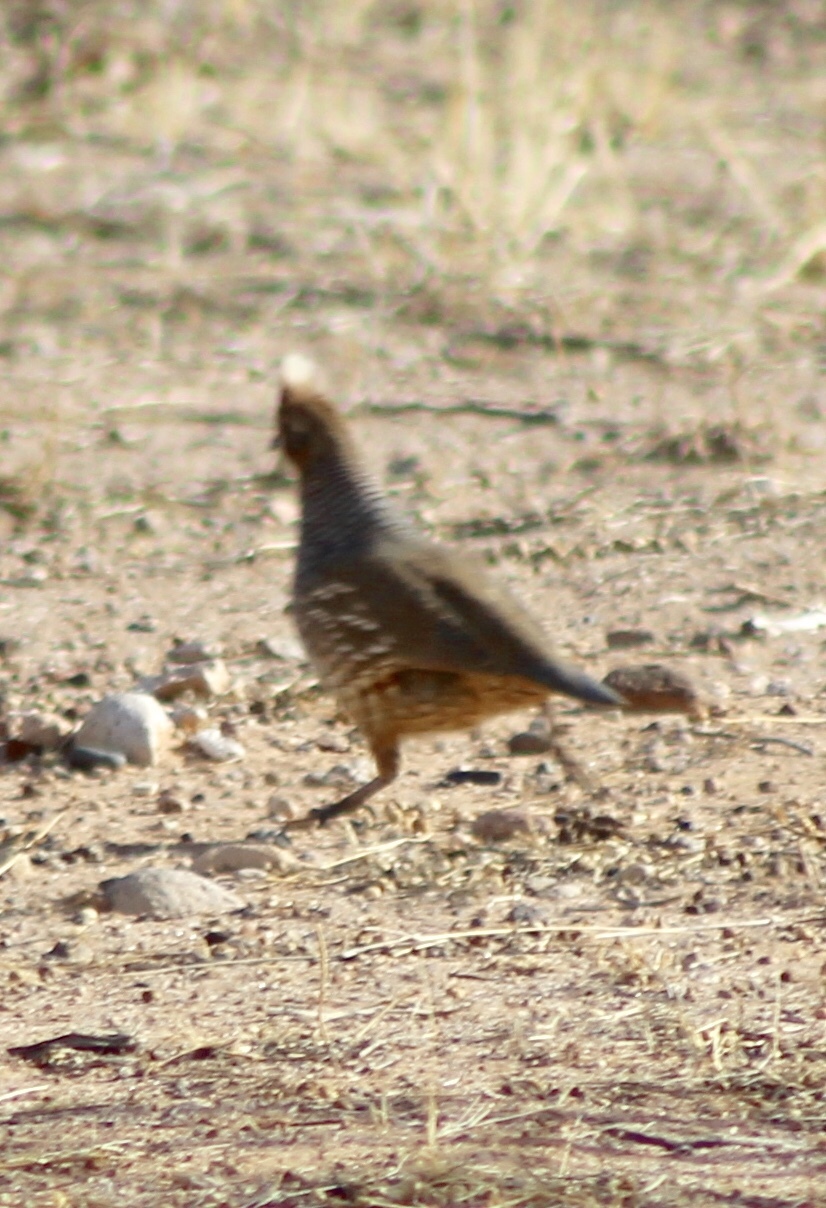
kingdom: Animalia
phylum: Chordata
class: Aves
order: Galliformes
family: Odontophoridae
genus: Callipepla
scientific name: Callipepla squamata
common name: Scaled quail
